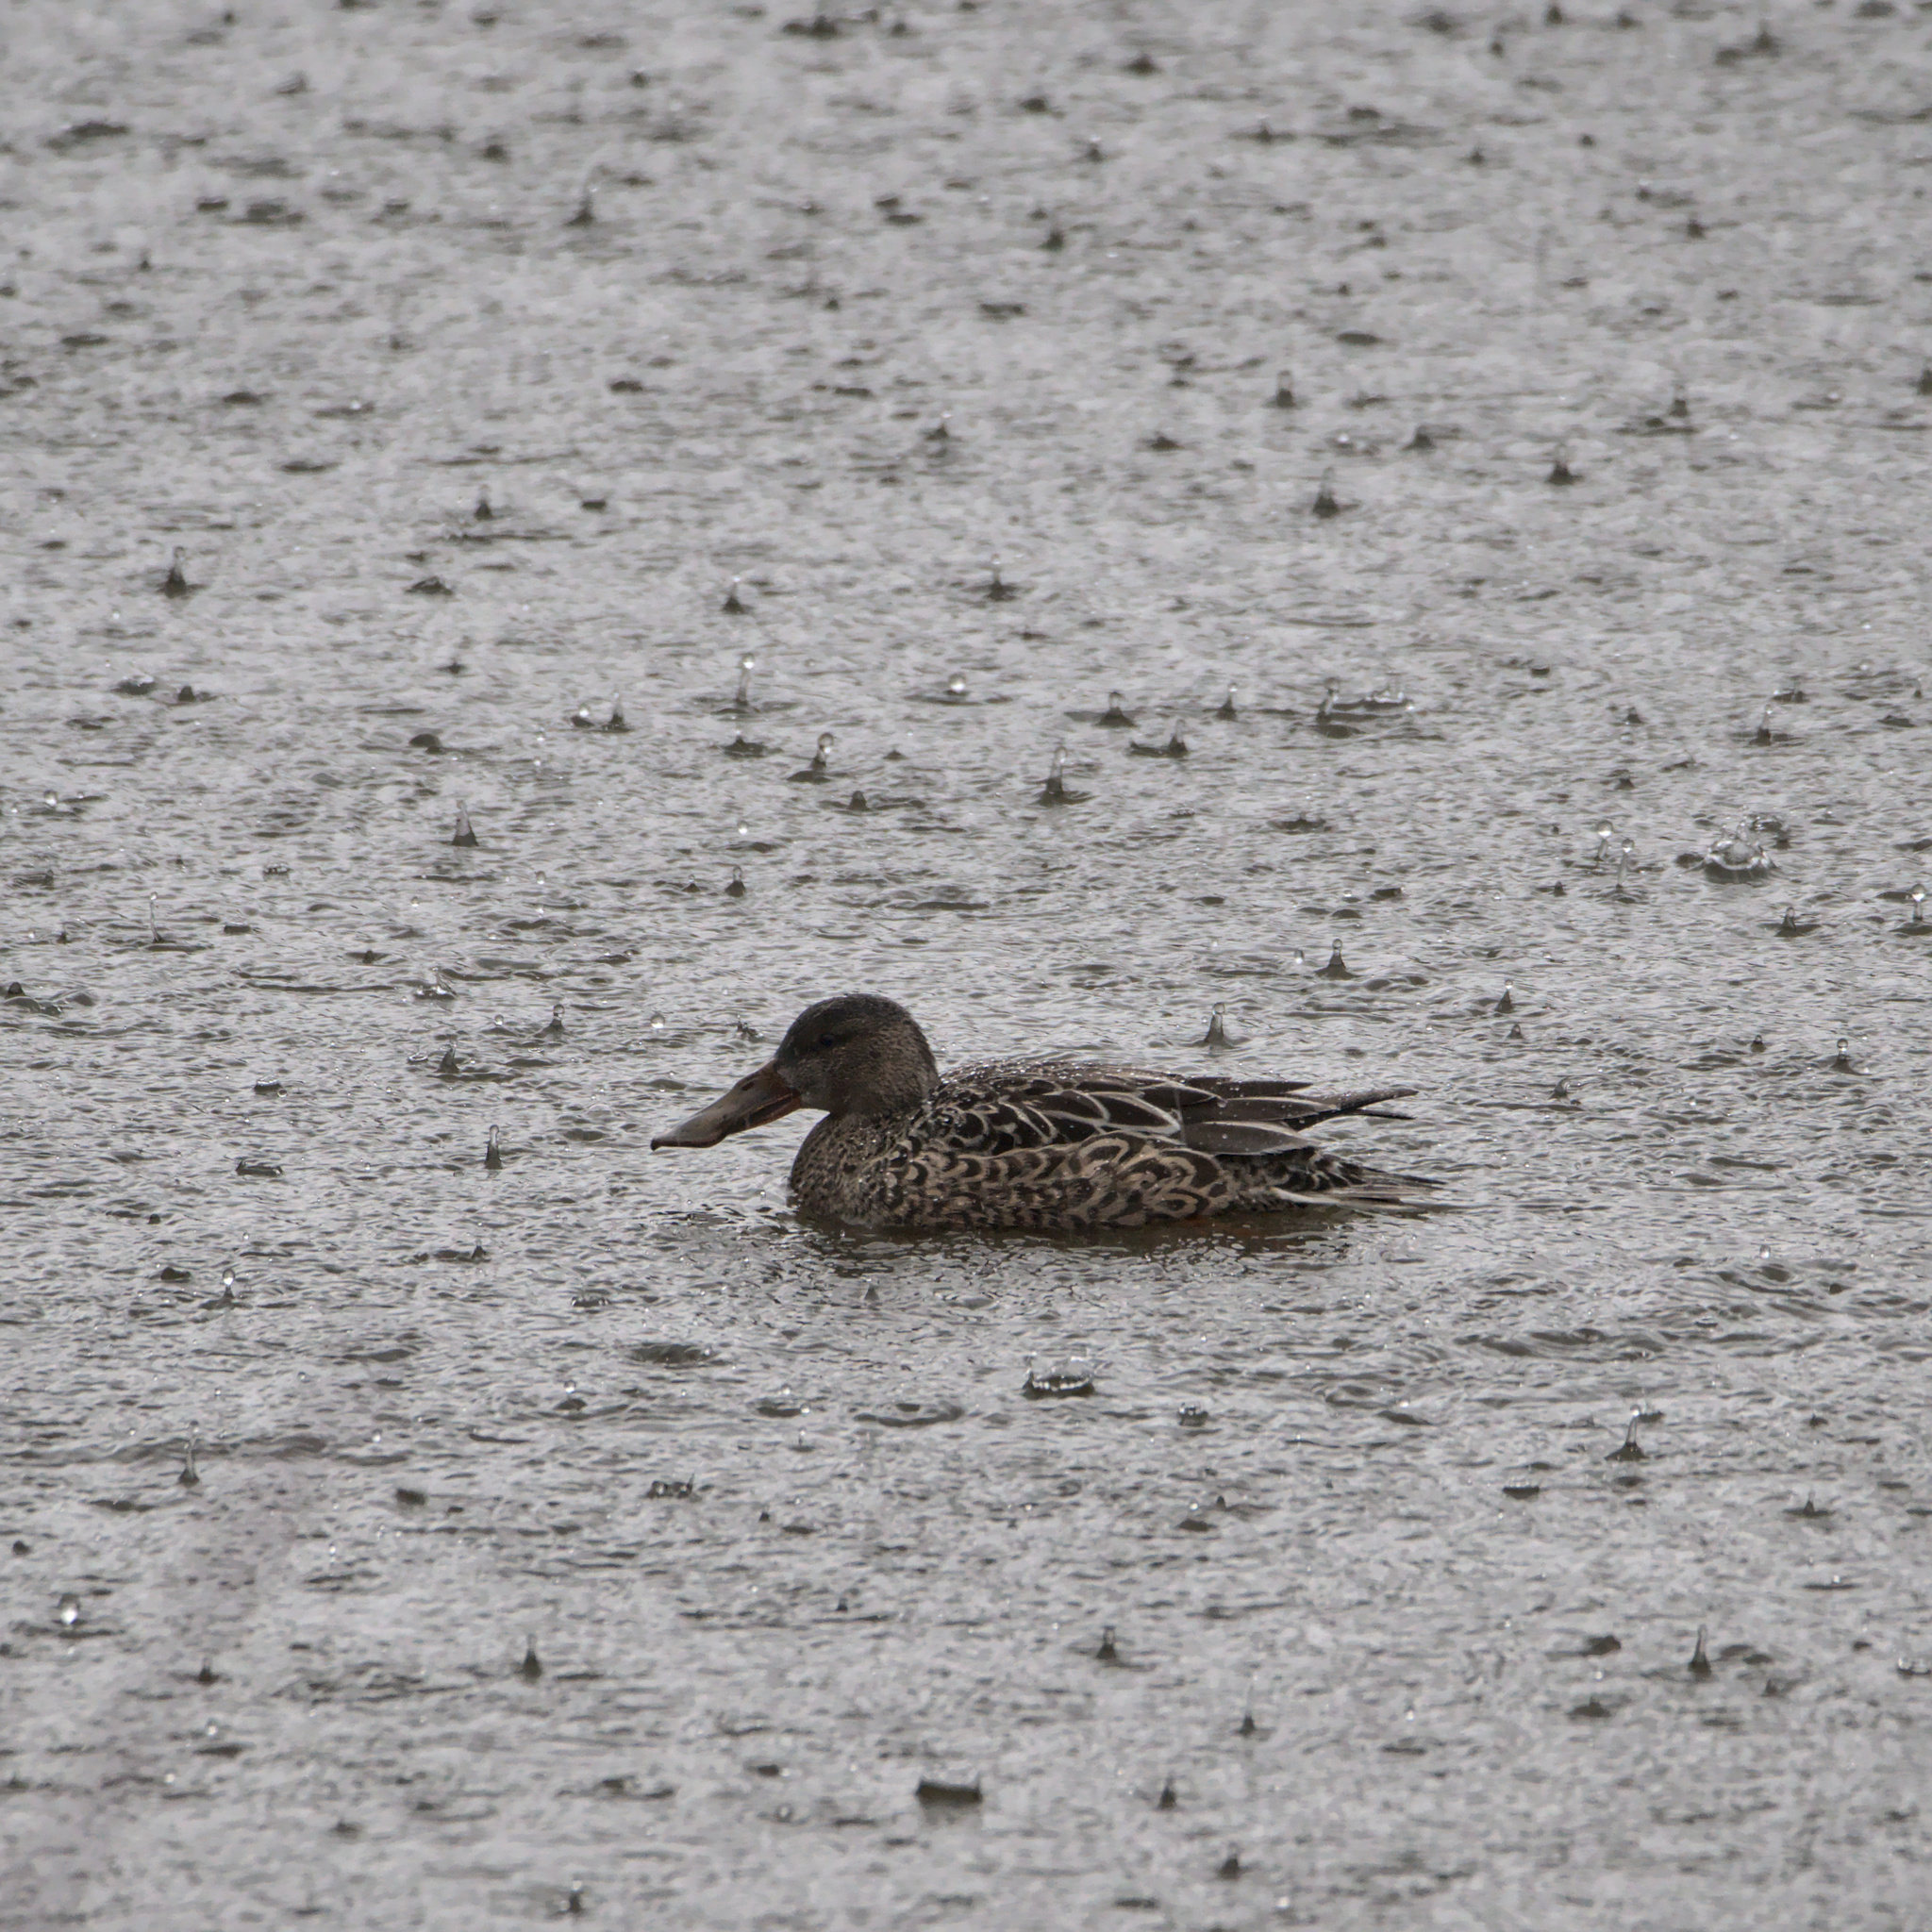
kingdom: Animalia
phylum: Chordata
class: Aves
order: Anseriformes
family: Anatidae
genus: Spatula
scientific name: Spatula clypeata
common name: Northern shoveler
